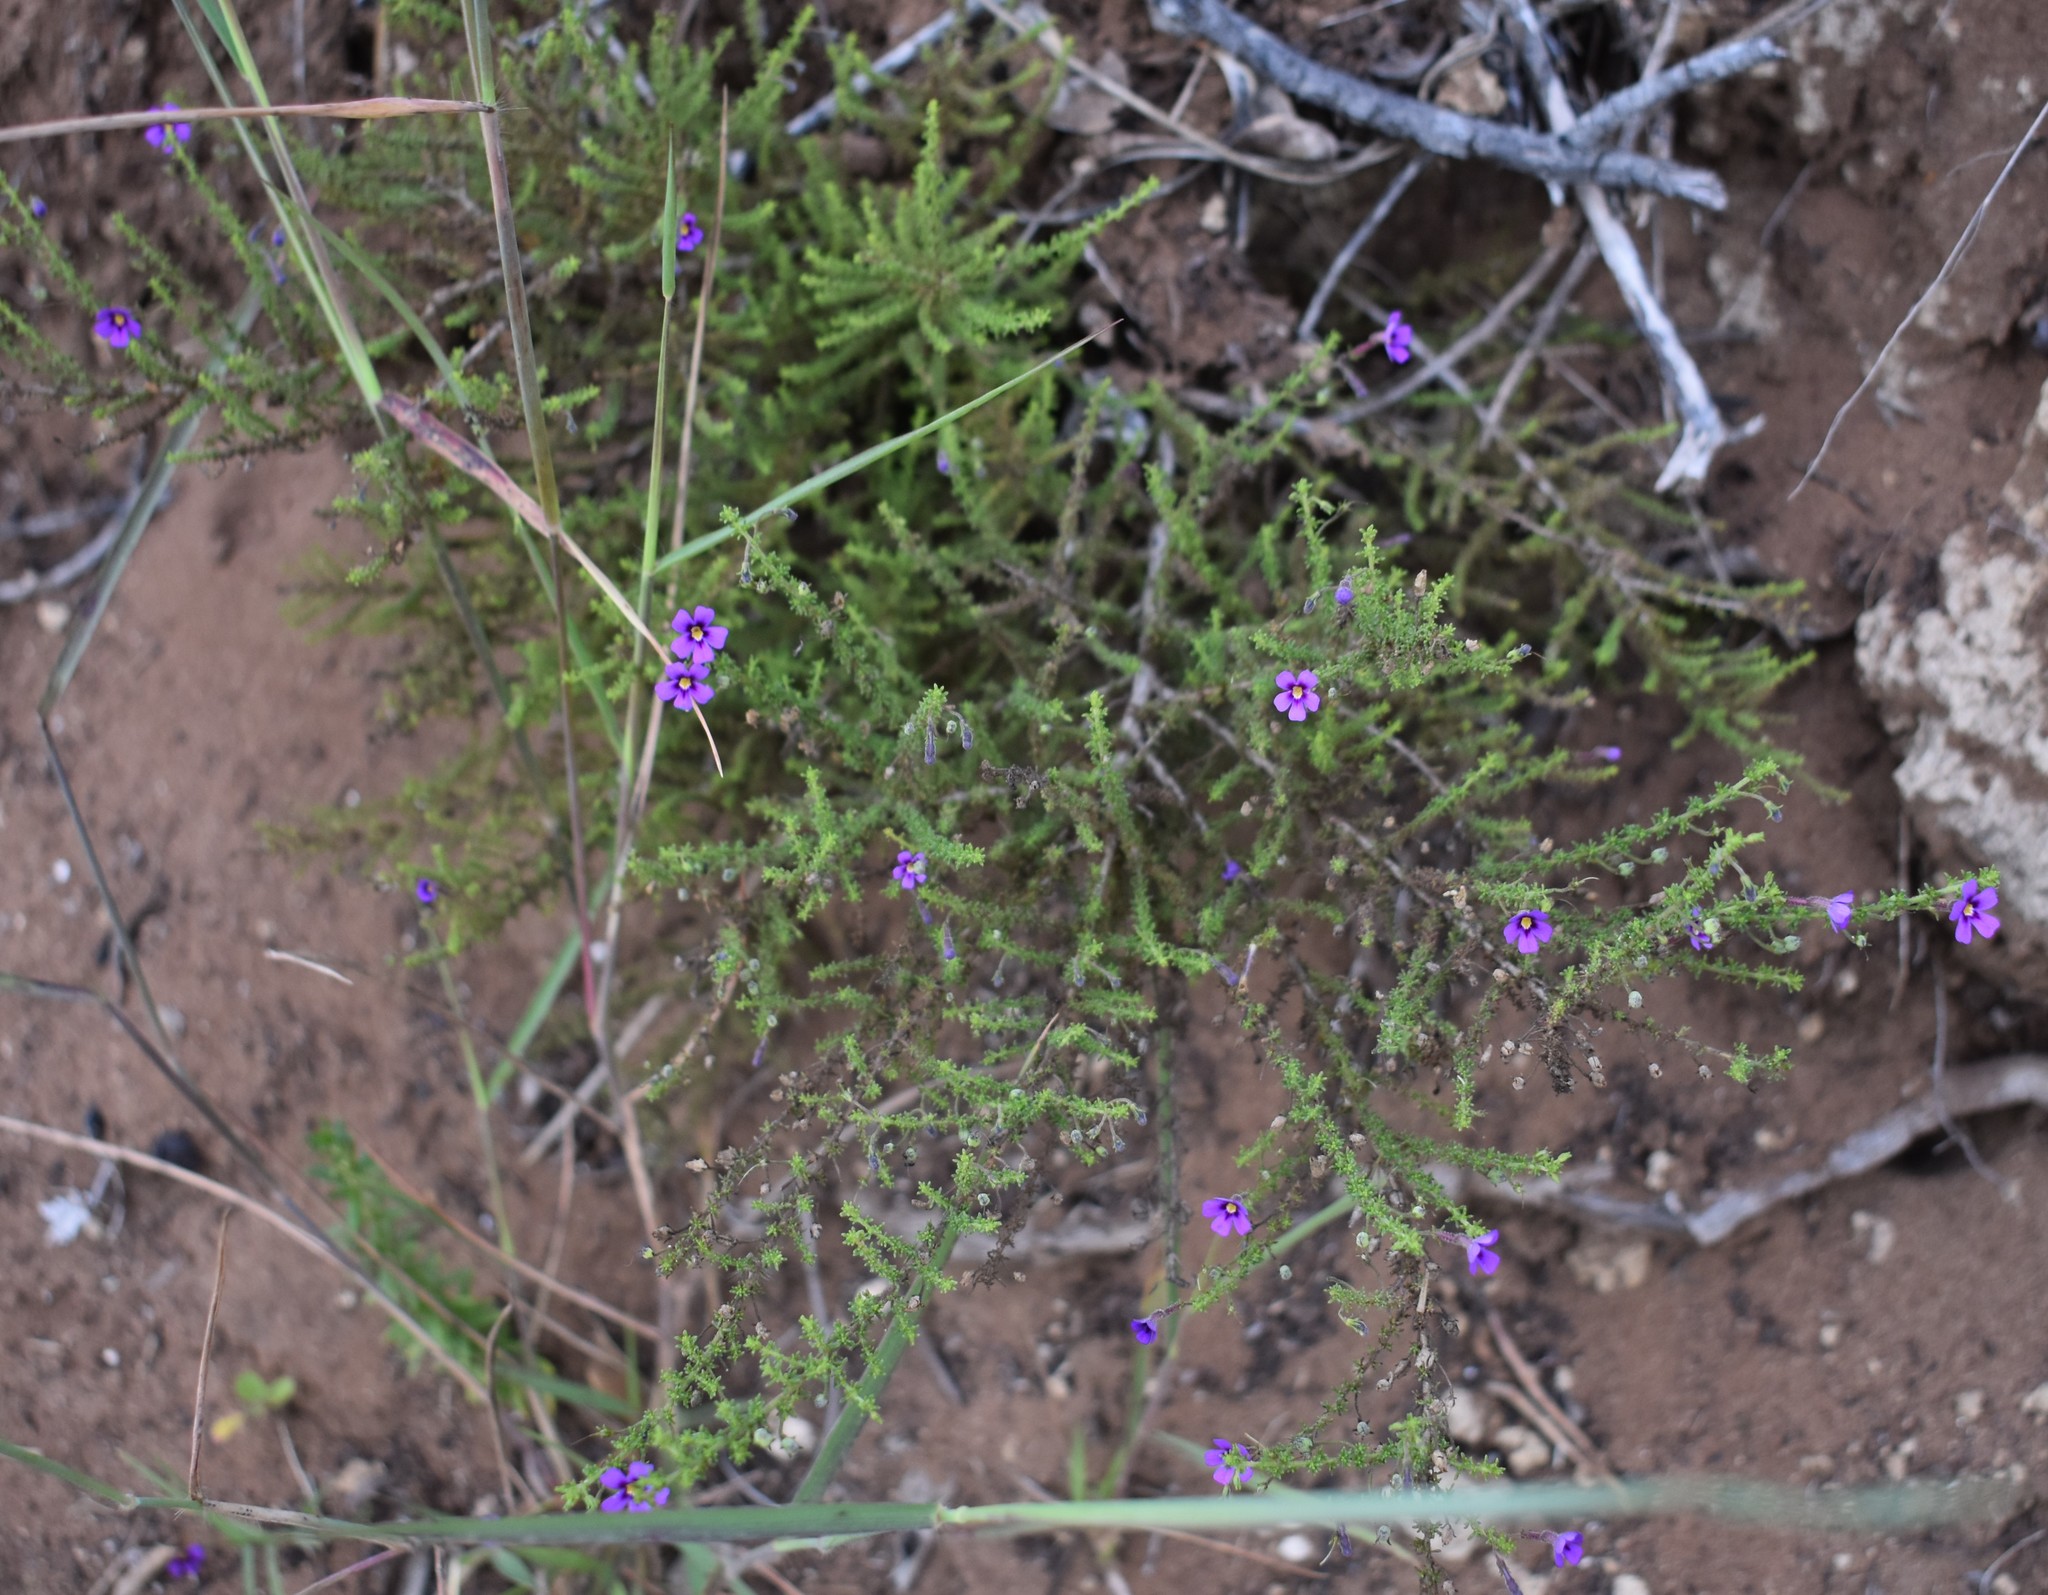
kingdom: Plantae
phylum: Tracheophyta
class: Magnoliopsida
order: Lamiales
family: Scrophulariaceae
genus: Jamesbrittenia
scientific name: Jamesbrittenia tenuifolia
